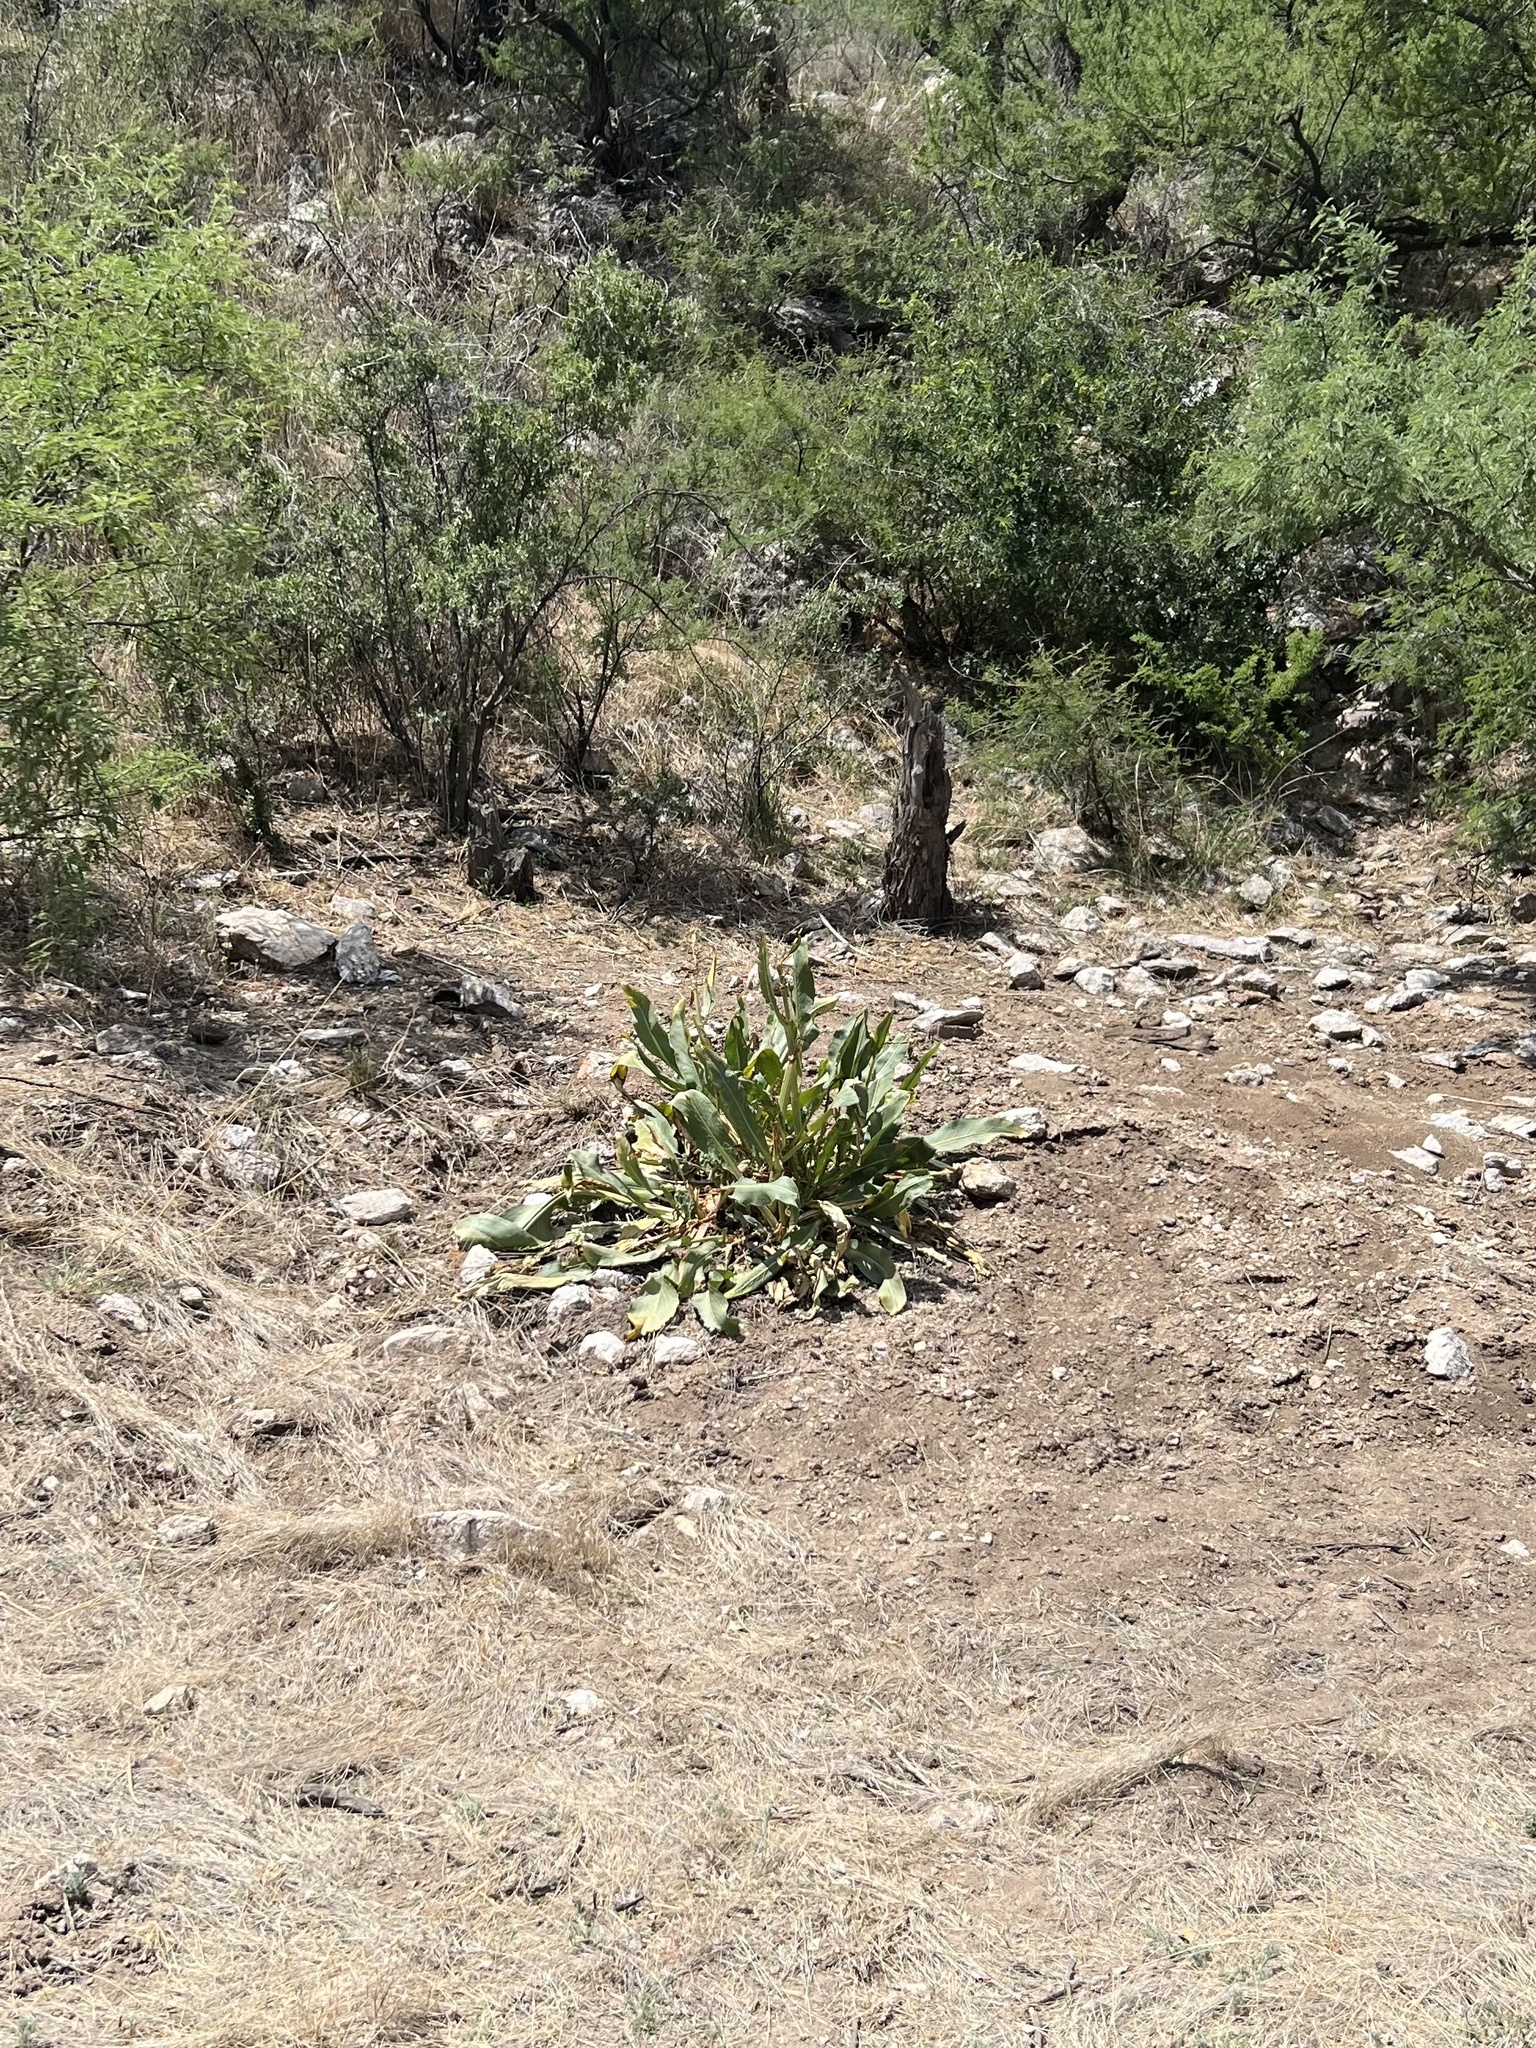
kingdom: Plantae
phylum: Tracheophyta
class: Magnoliopsida
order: Caryophyllales
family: Polygonaceae
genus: Rumex
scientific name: Rumex hymenosepalus
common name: Ganagra
